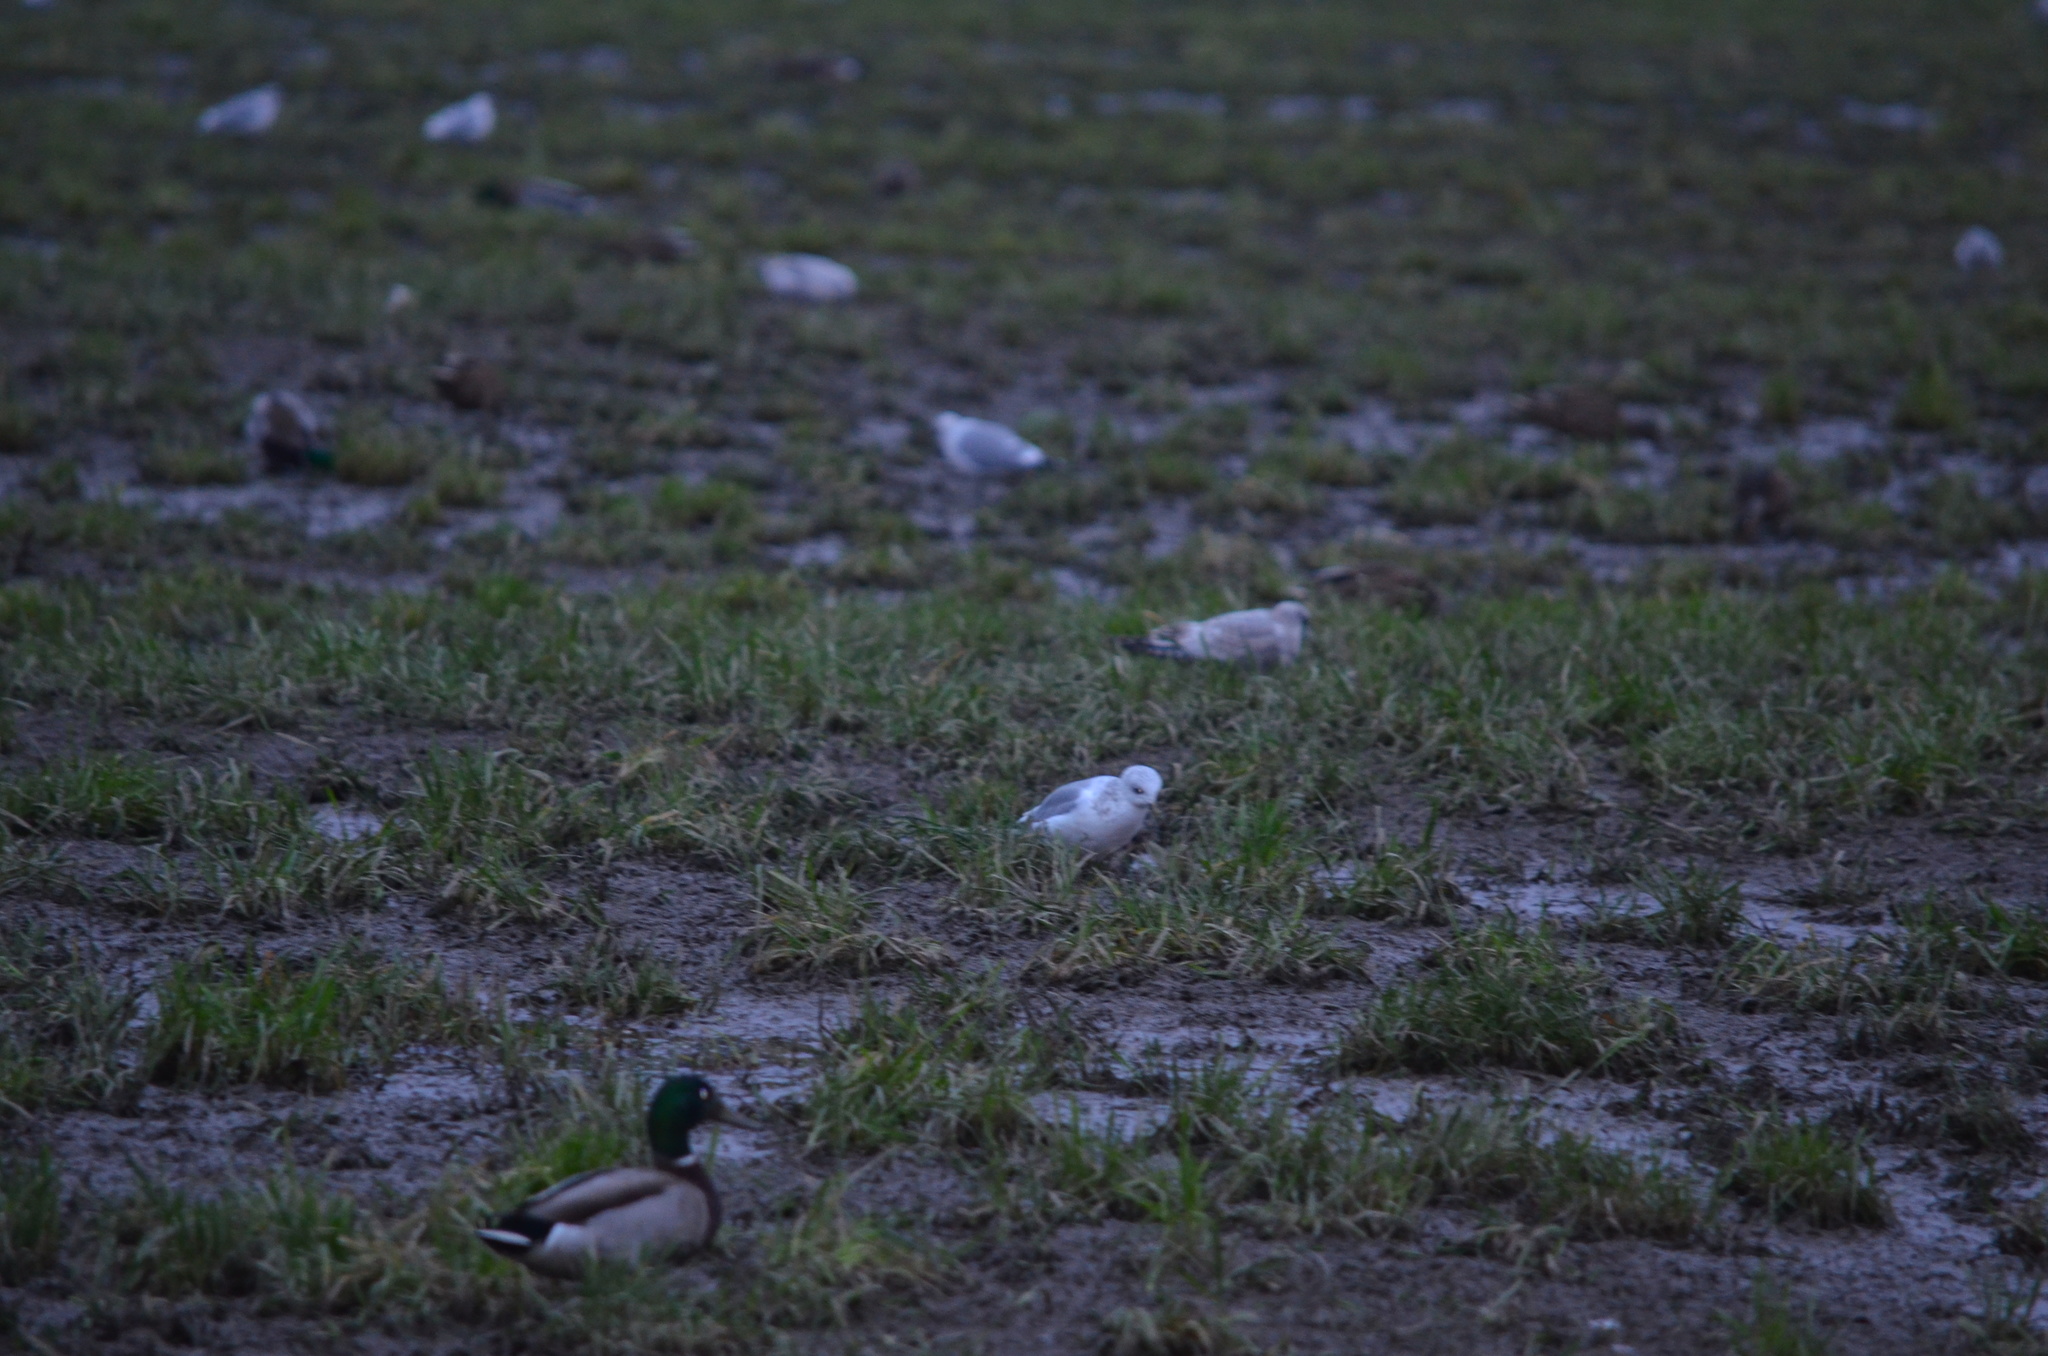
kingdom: Animalia
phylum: Chordata
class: Aves
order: Charadriiformes
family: Laridae
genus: Larus
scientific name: Larus brachyrhynchus
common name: Short-billed gull
